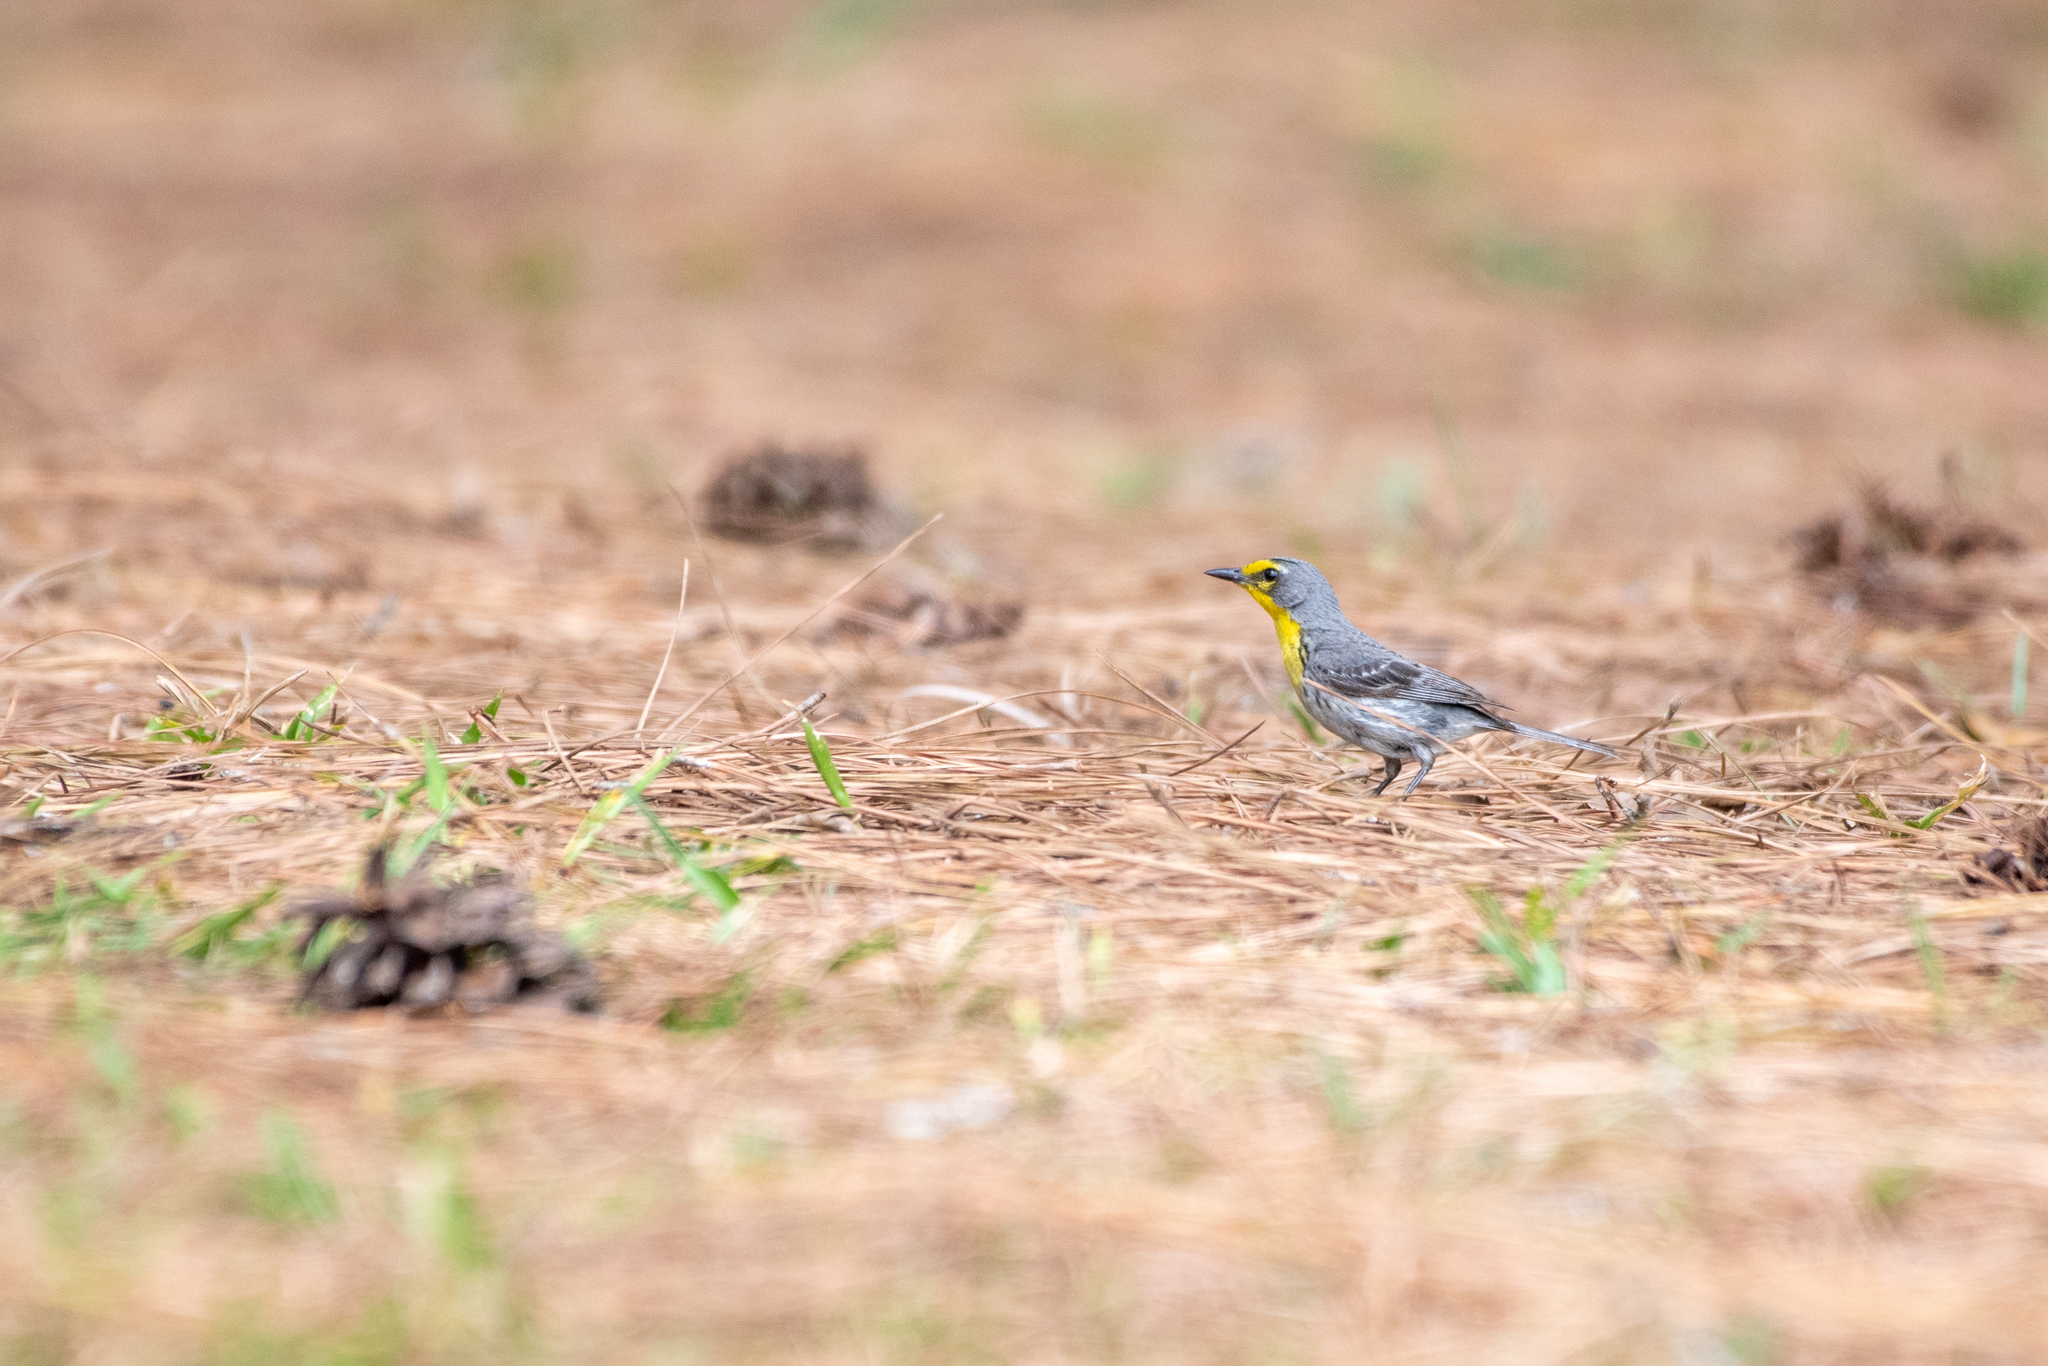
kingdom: Animalia
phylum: Chordata
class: Aves
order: Passeriformes
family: Parulidae
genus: Setophaga
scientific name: Setophaga graciae
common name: Grace's warbler
